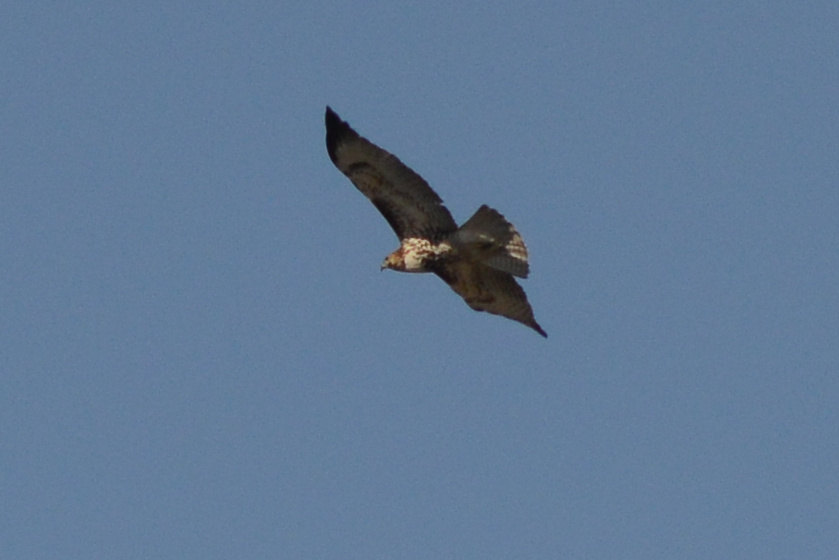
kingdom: Animalia
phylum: Chordata
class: Aves
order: Accipitriformes
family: Accipitridae
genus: Buteo
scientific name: Buteo jamaicensis
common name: Red-tailed hawk
